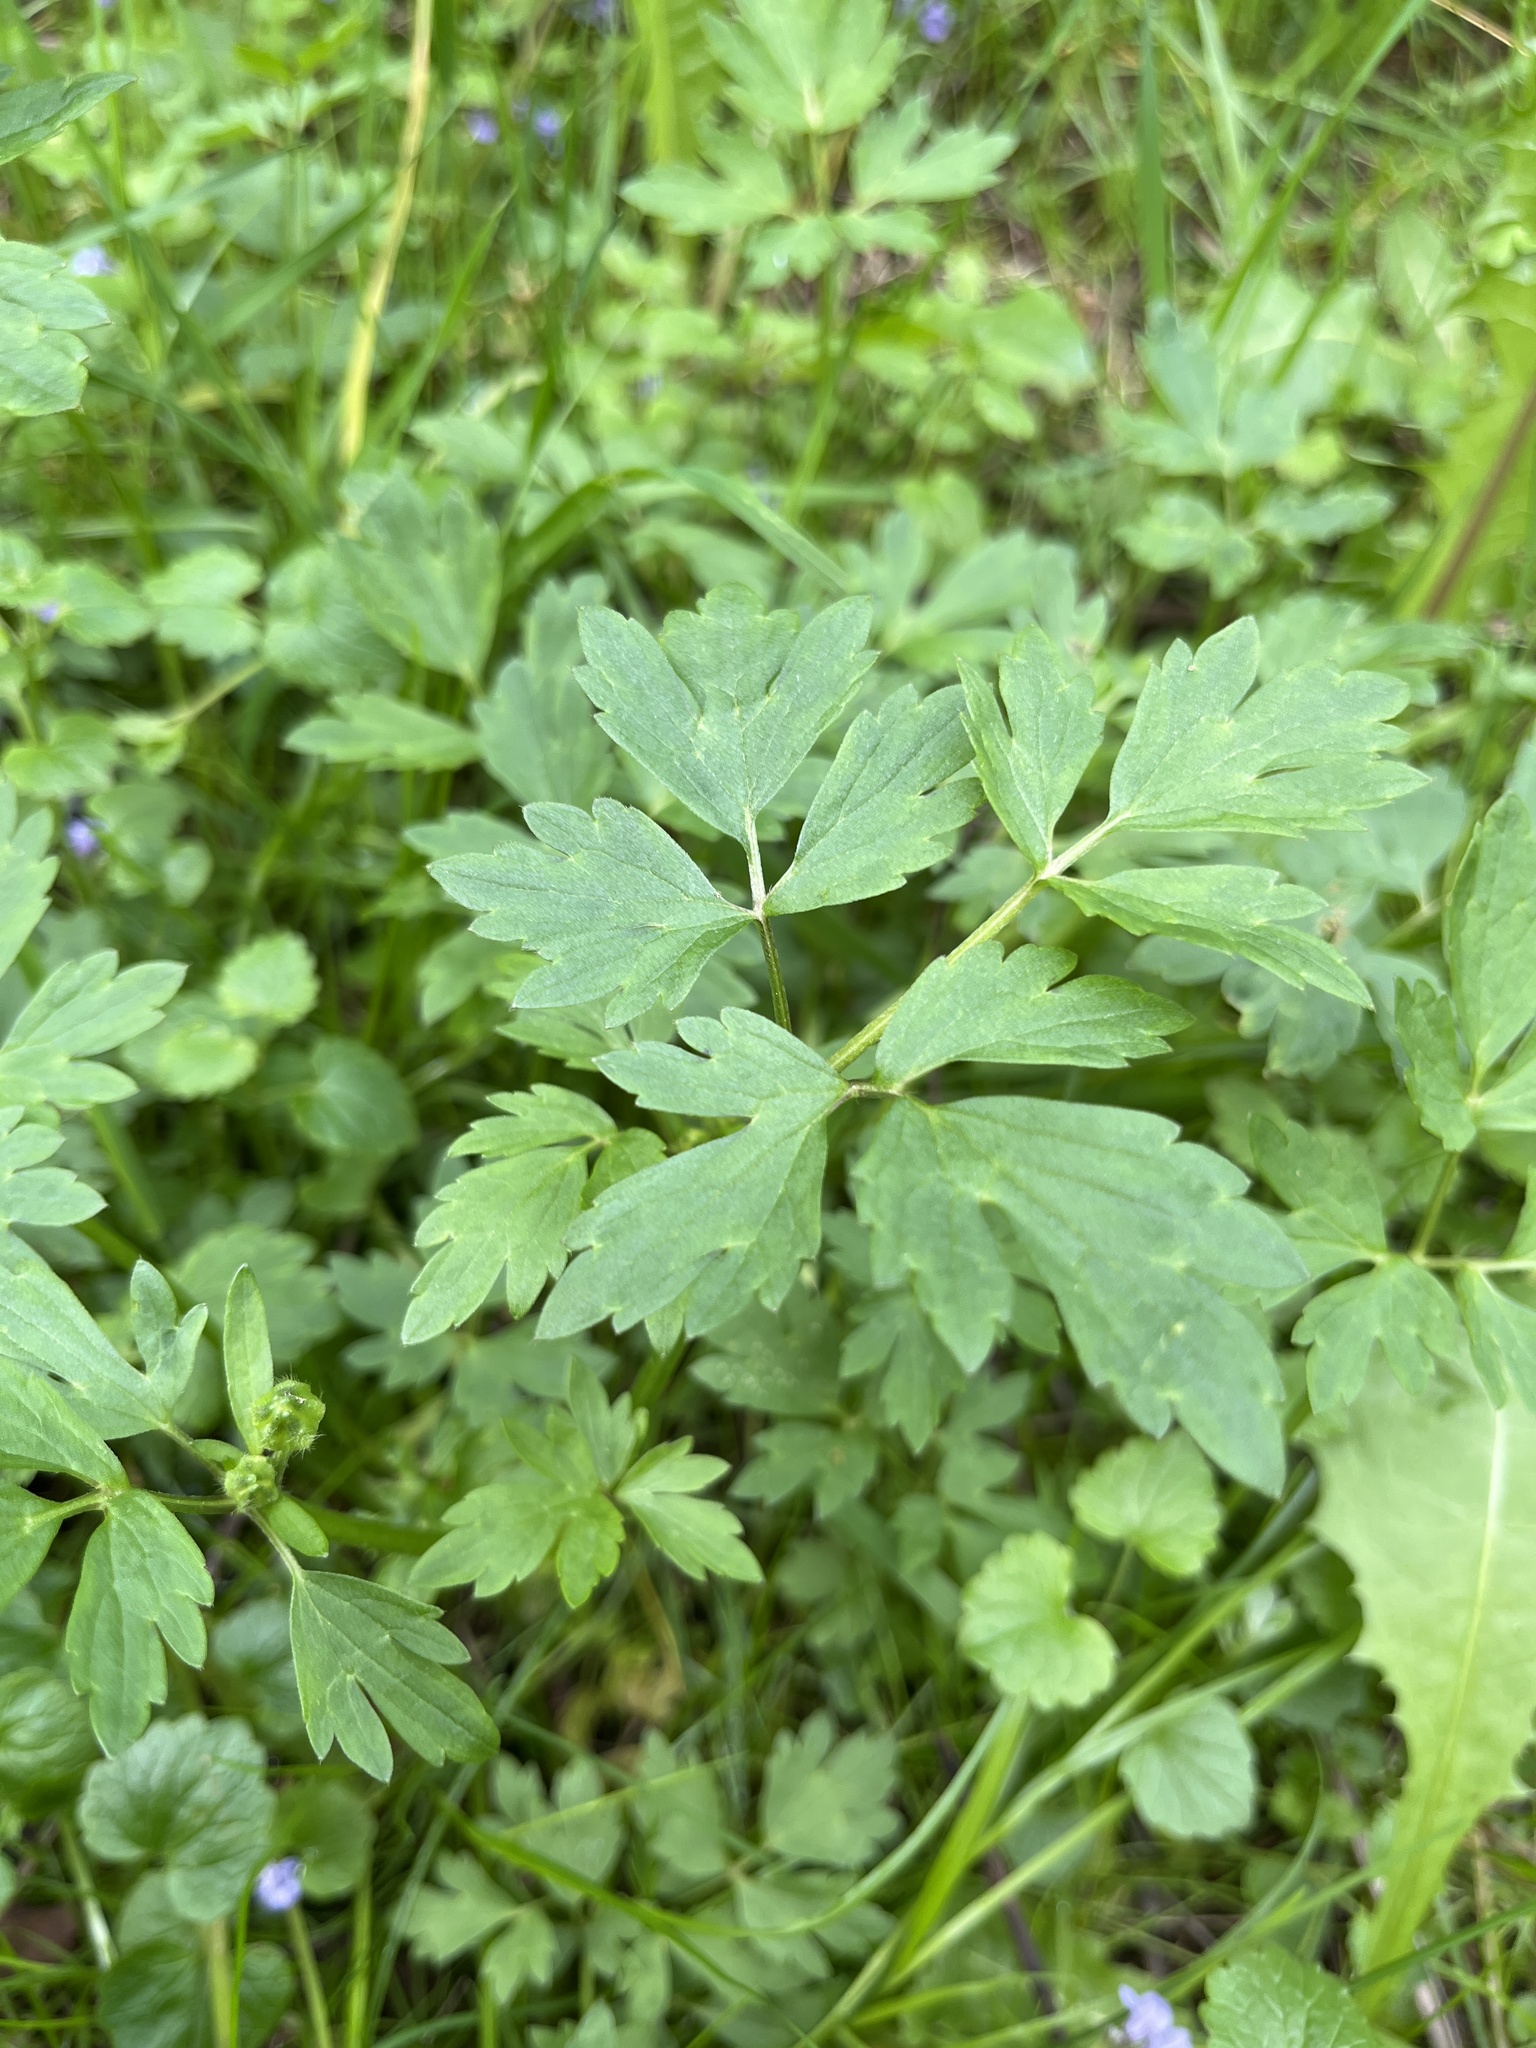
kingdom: Plantae
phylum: Tracheophyta
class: Magnoliopsida
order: Ranunculales
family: Ranunculaceae
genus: Ranunculus
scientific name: Ranunculus repens
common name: Creeping buttercup
